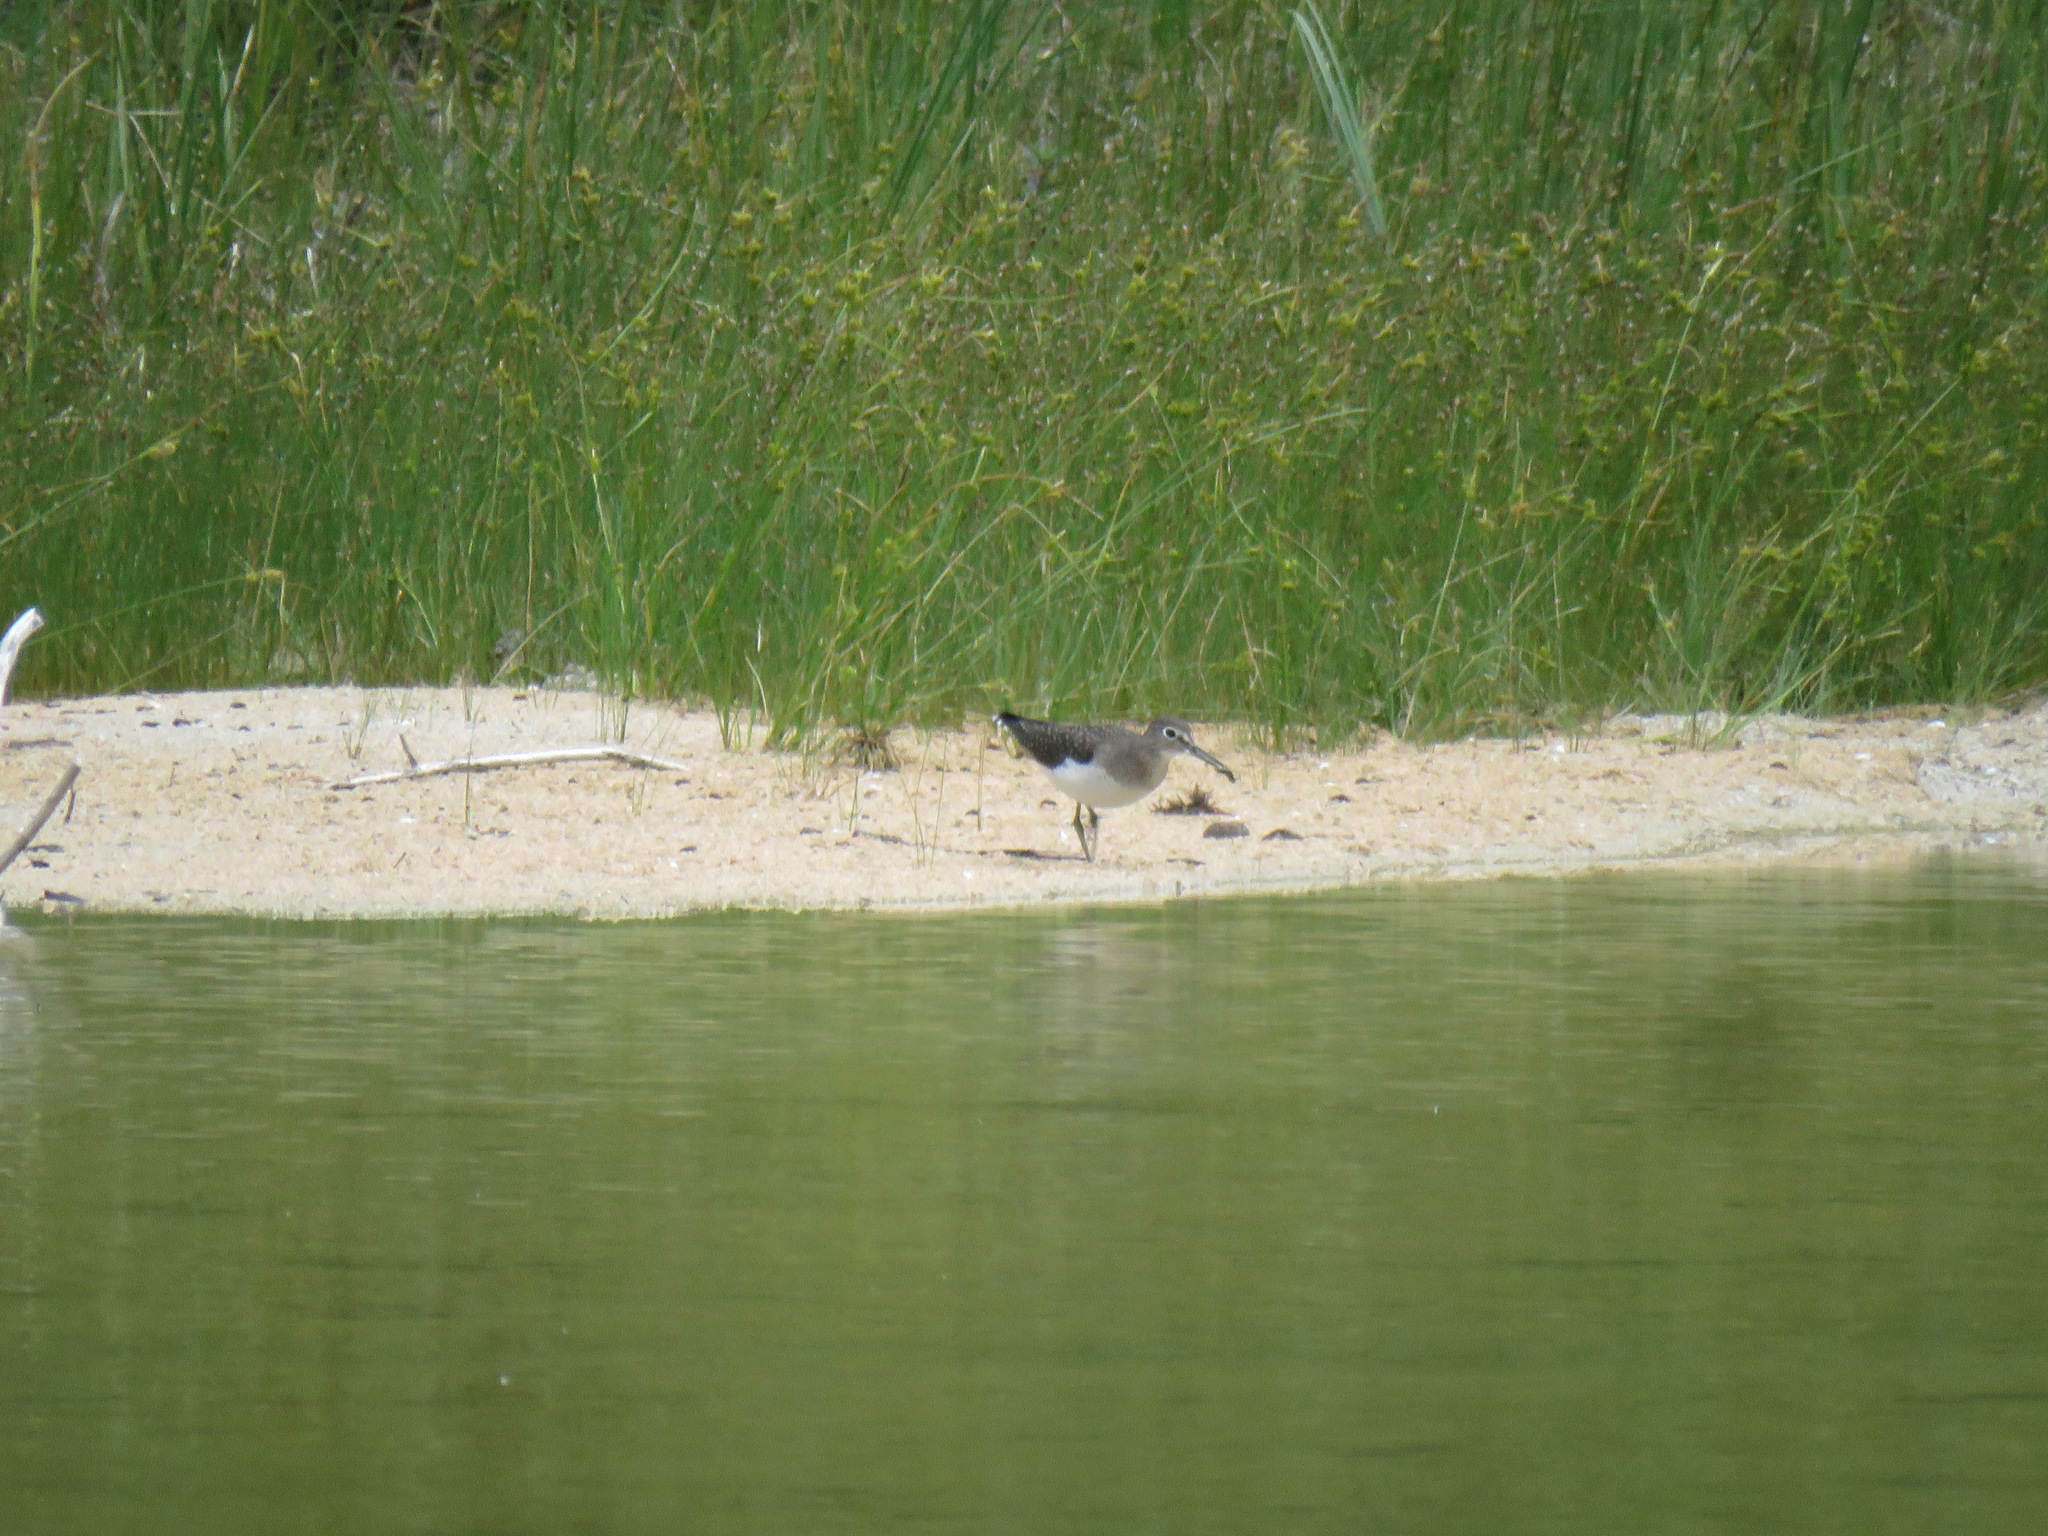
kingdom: Animalia
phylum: Chordata
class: Aves
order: Charadriiformes
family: Scolopacidae
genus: Tringa
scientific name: Tringa solitaria
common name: Solitary sandpiper
